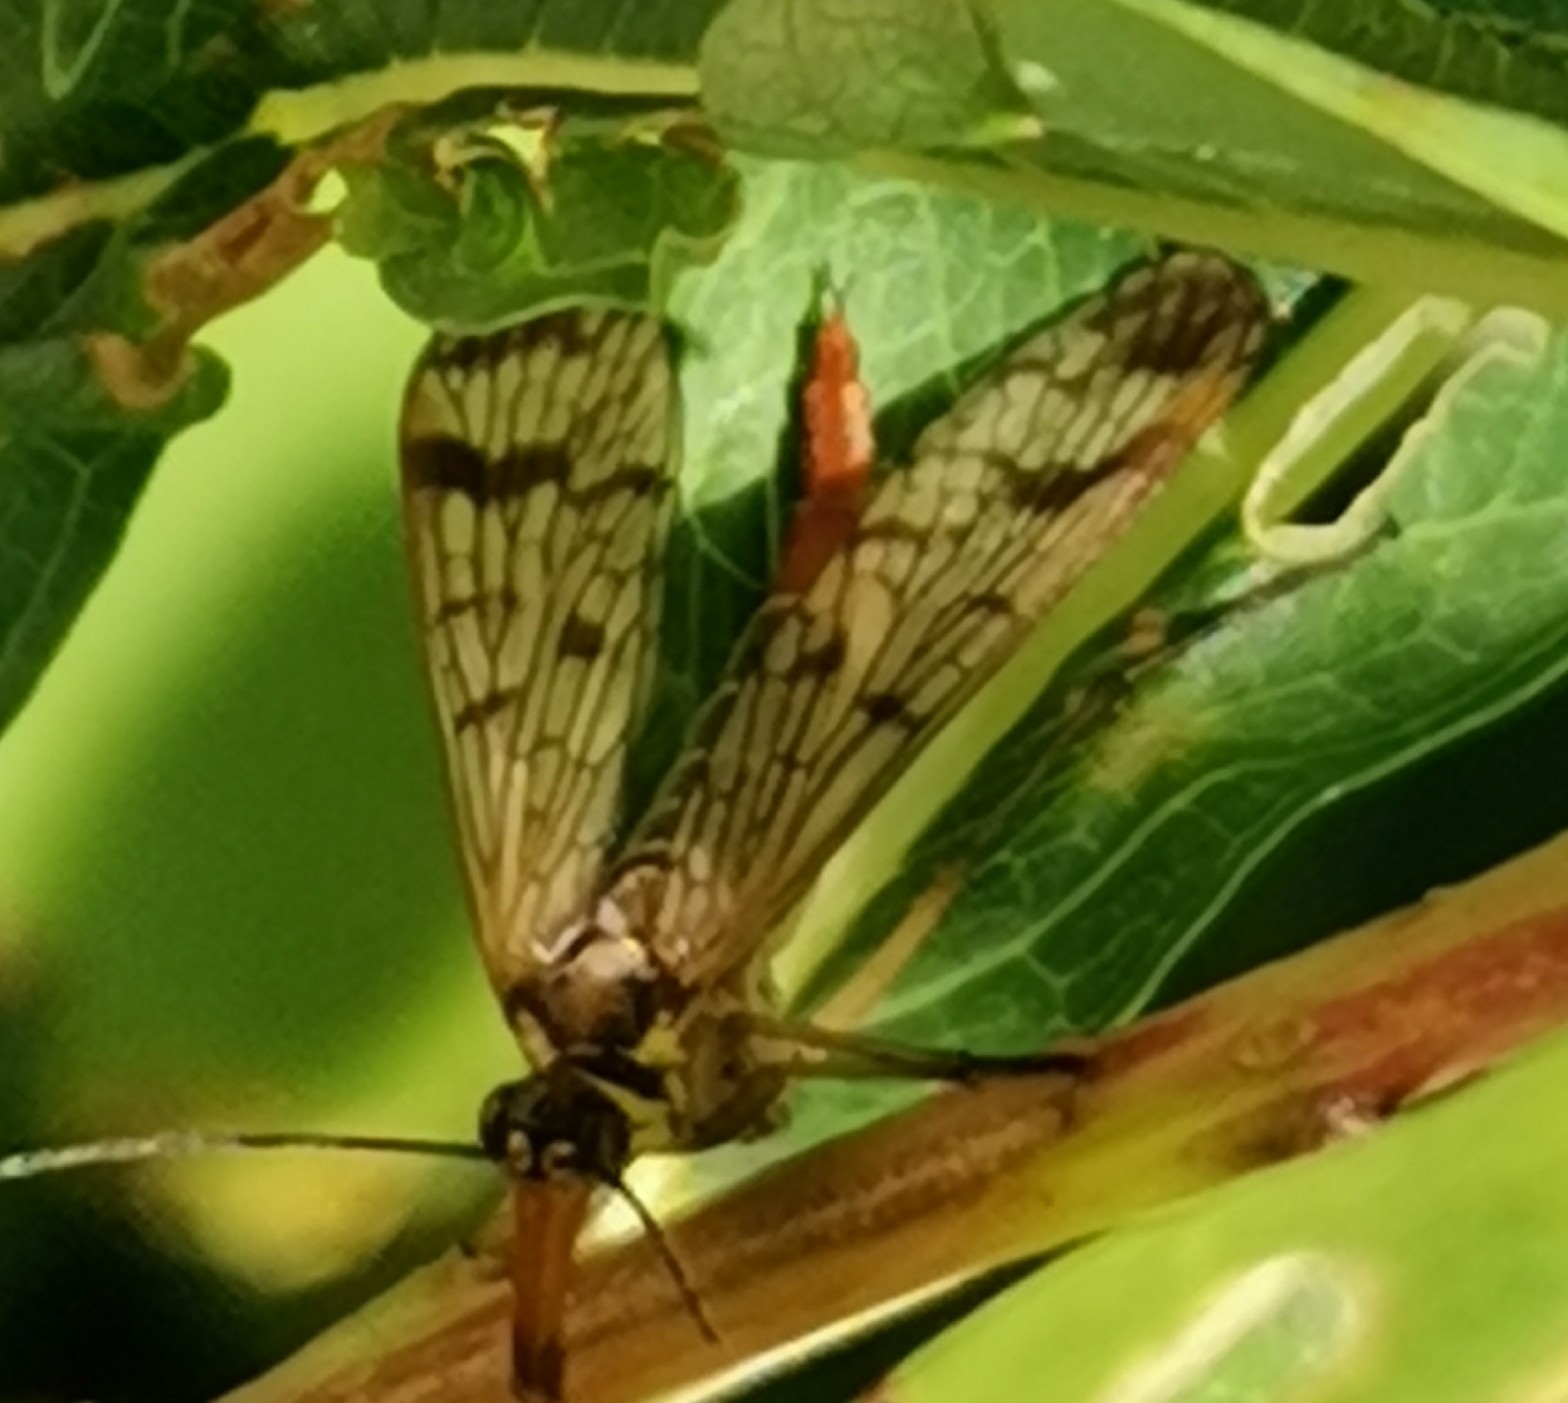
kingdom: Animalia
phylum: Arthropoda
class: Insecta
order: Mecoptera
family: Panorpidae
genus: Panorpa
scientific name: Panorpa communis
